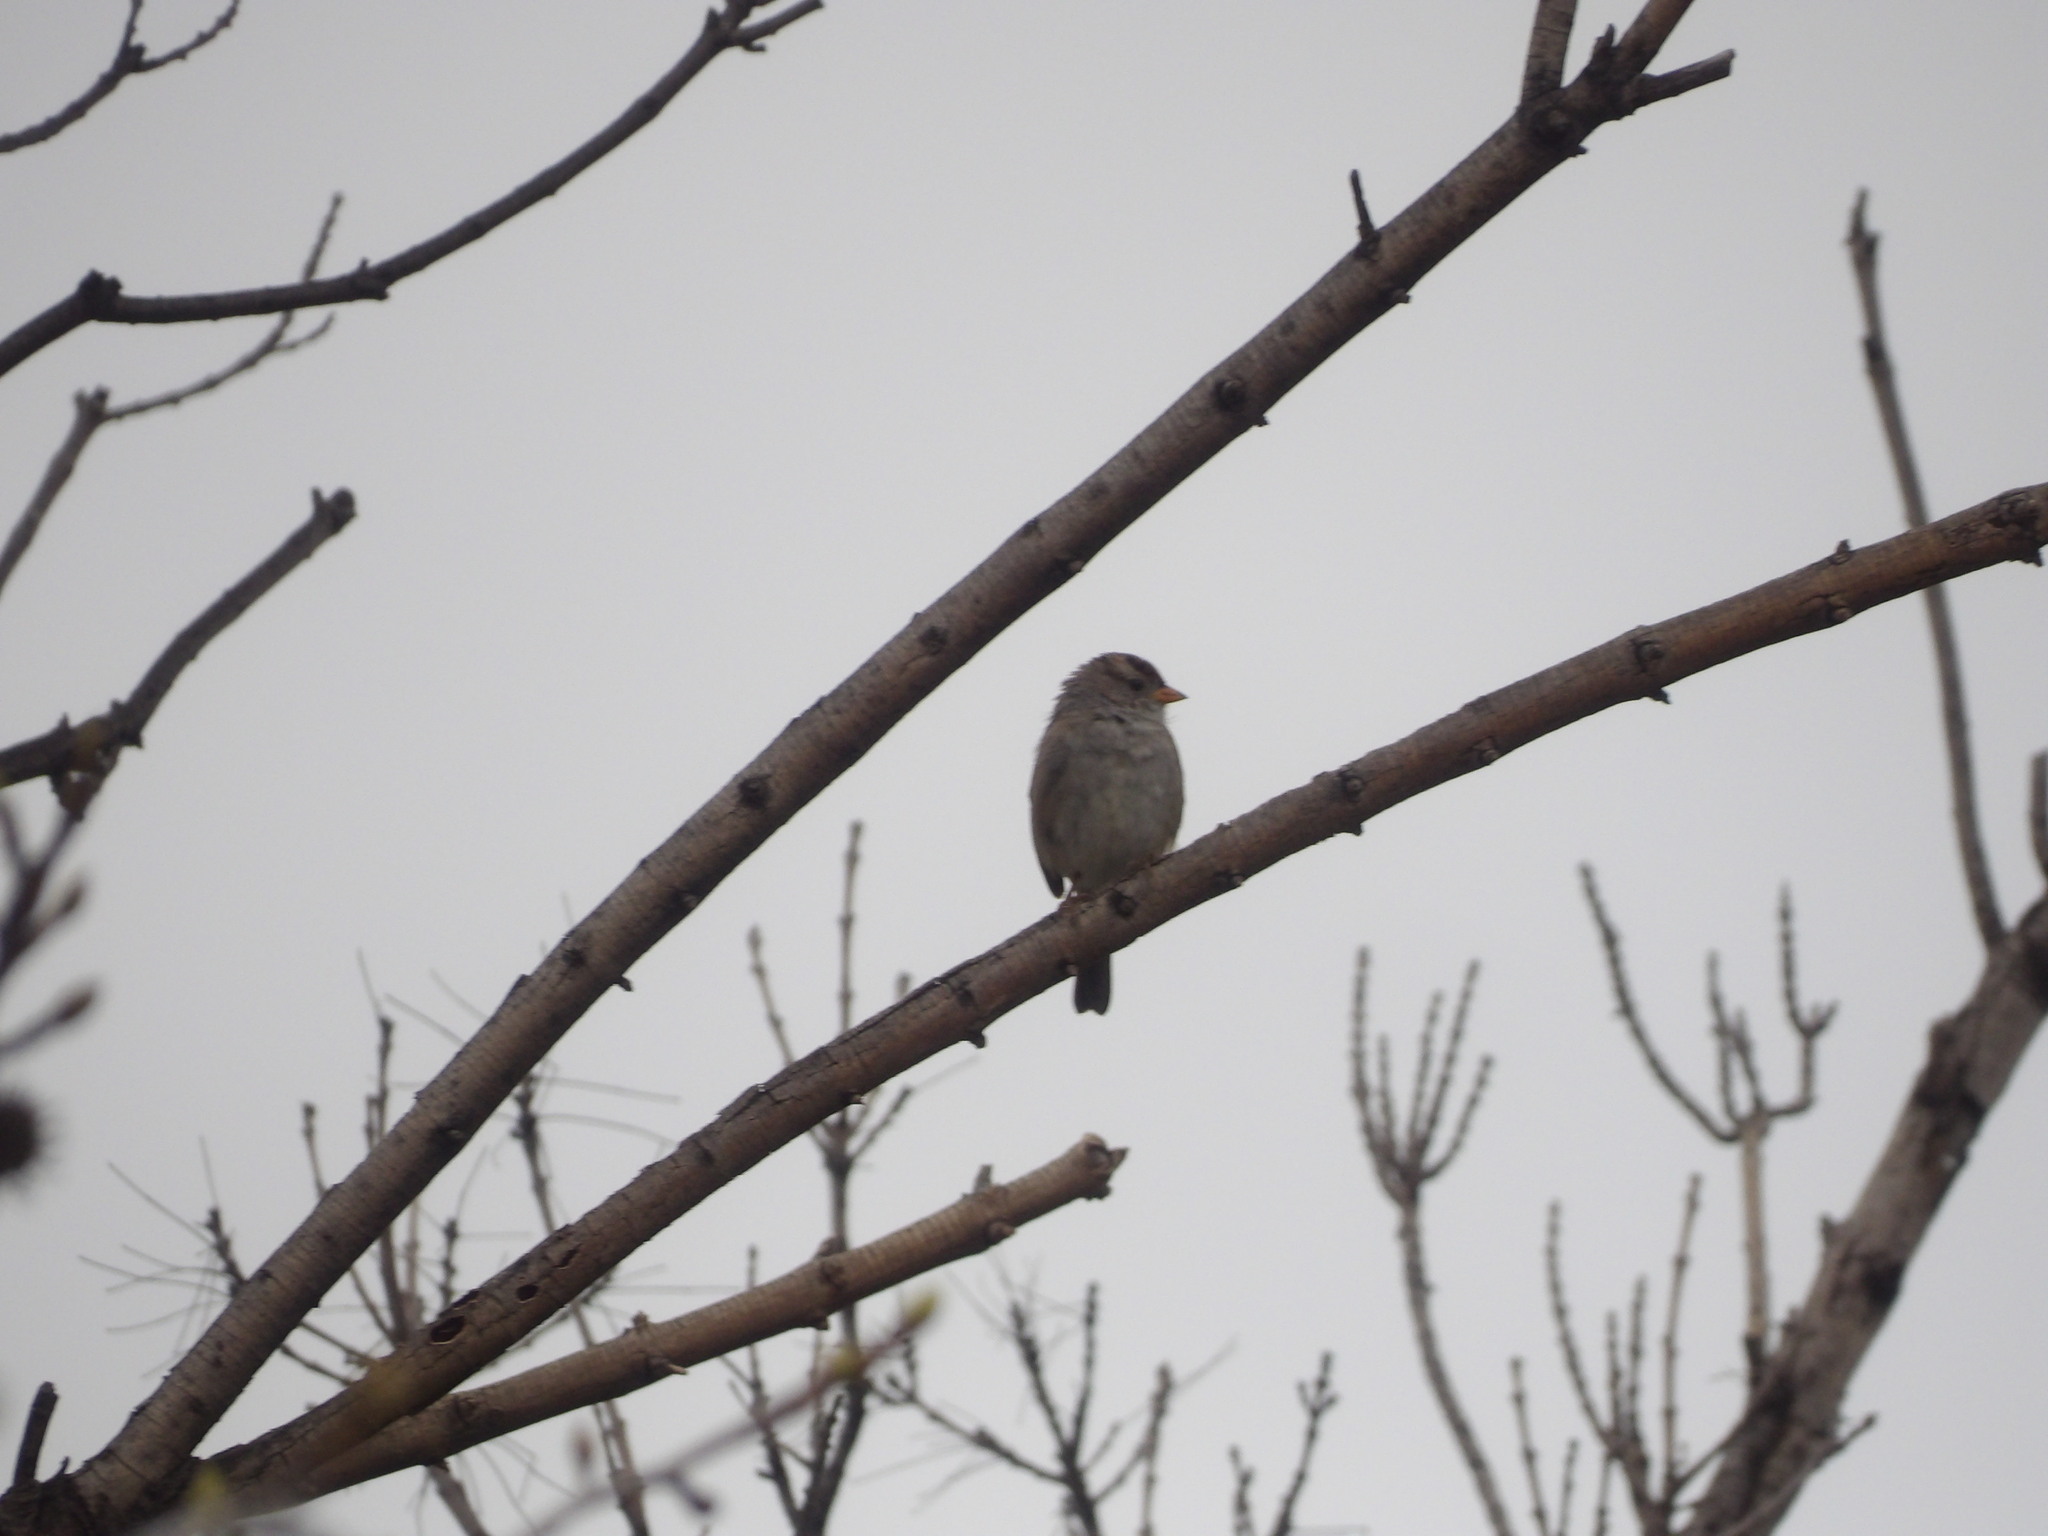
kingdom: Animalia
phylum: Chordata
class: Aves
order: Passeriformes
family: Passerellidae
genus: Zonotrichia
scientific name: Zonotrichia leucophrys
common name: White-crowned sparrow
